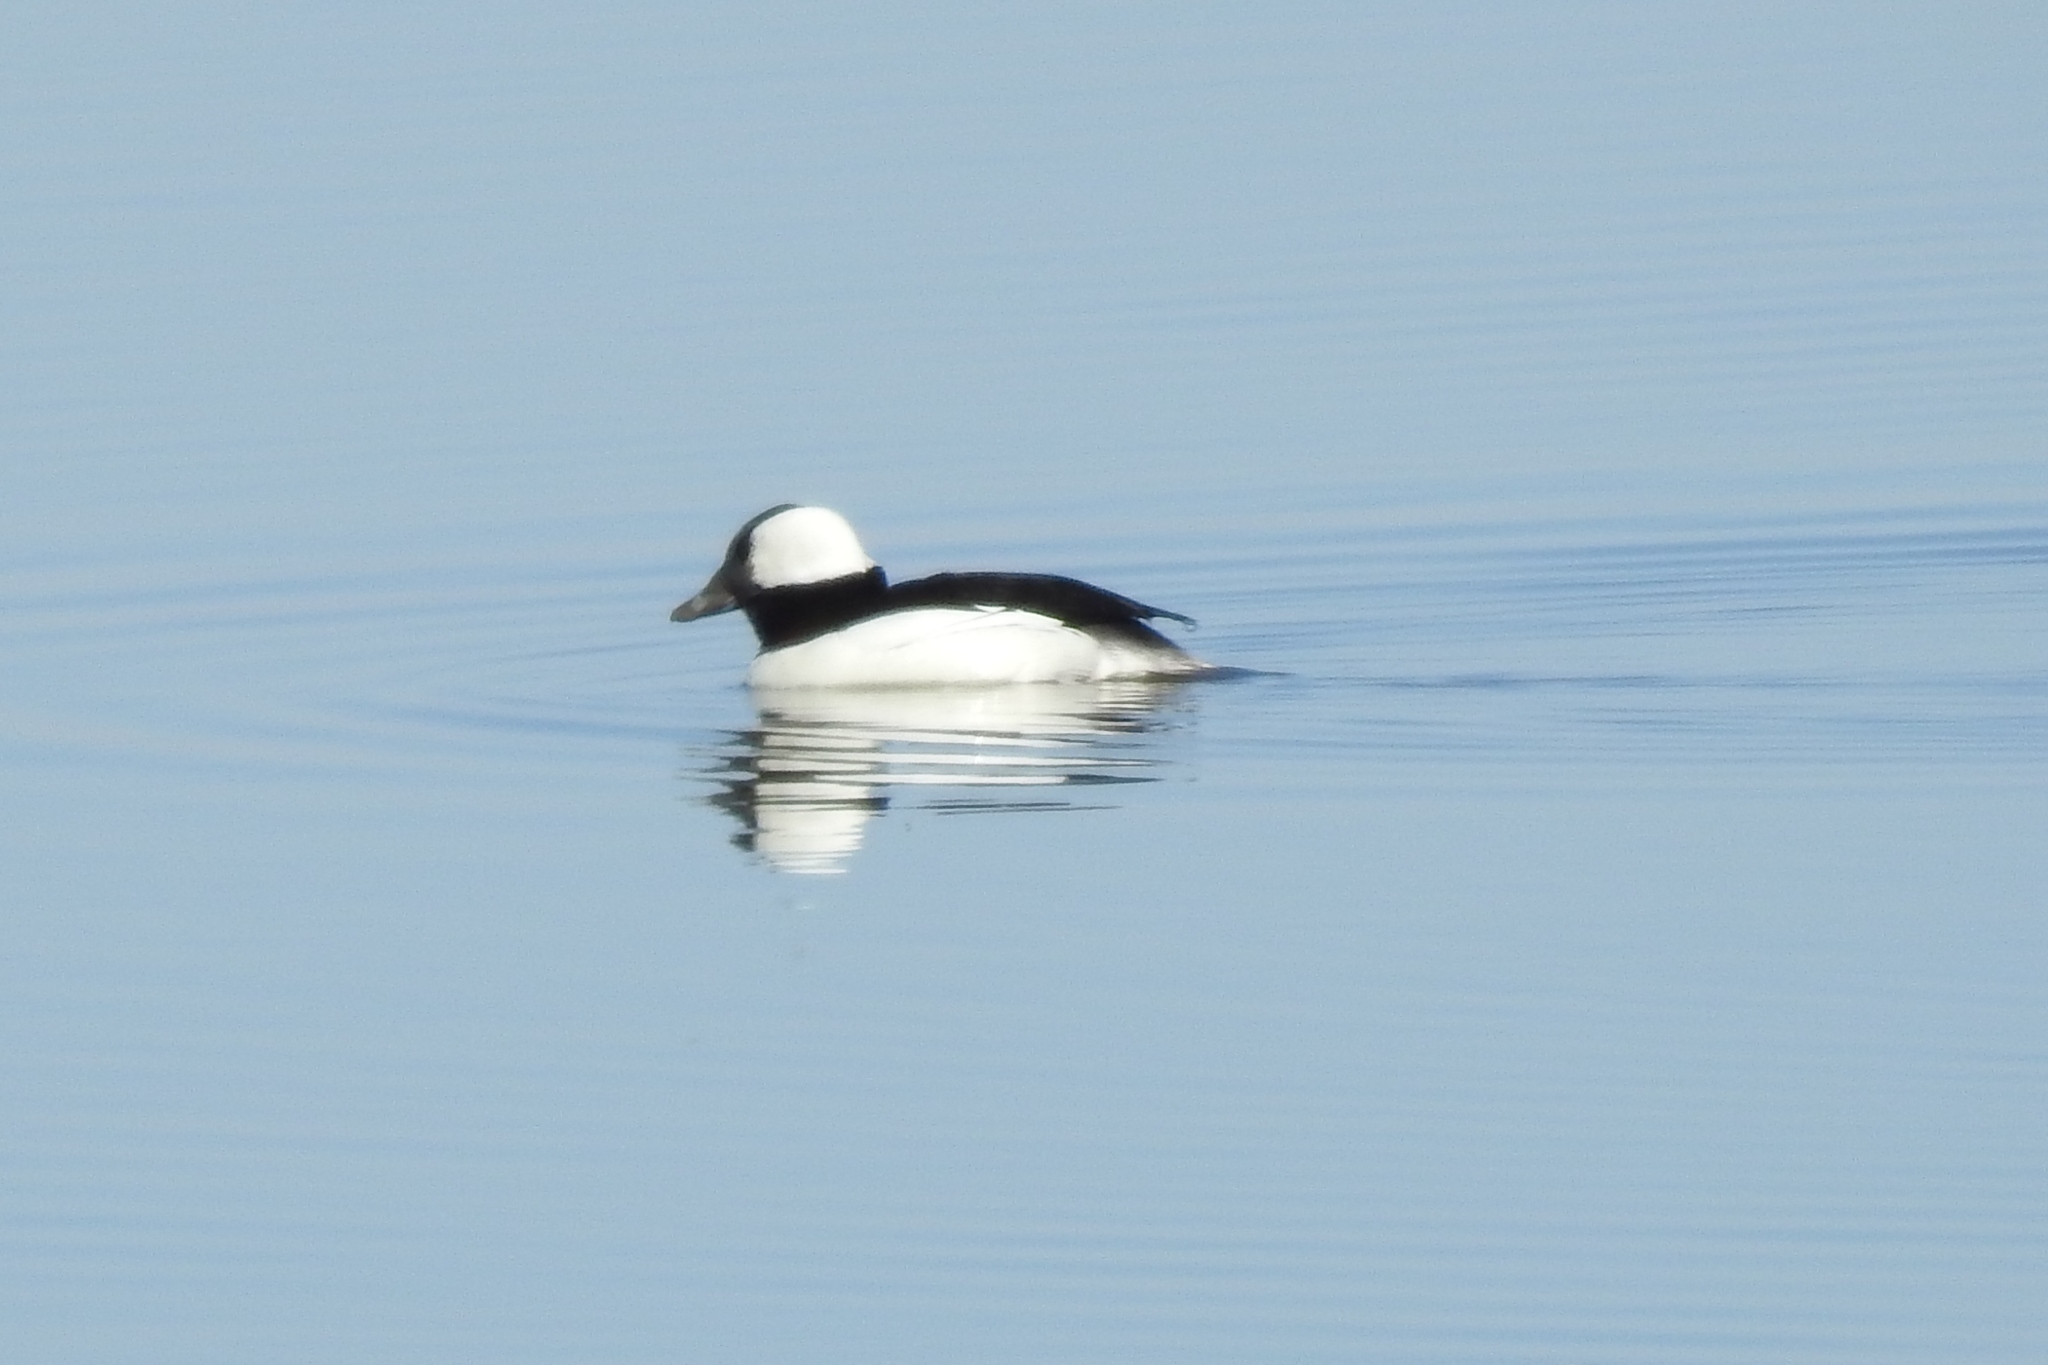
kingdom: Animalia
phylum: Chordata
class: Aves
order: Anseriformes
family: Anatidae
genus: Bucephala
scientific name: Bucephala albeola
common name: Bufflehead
